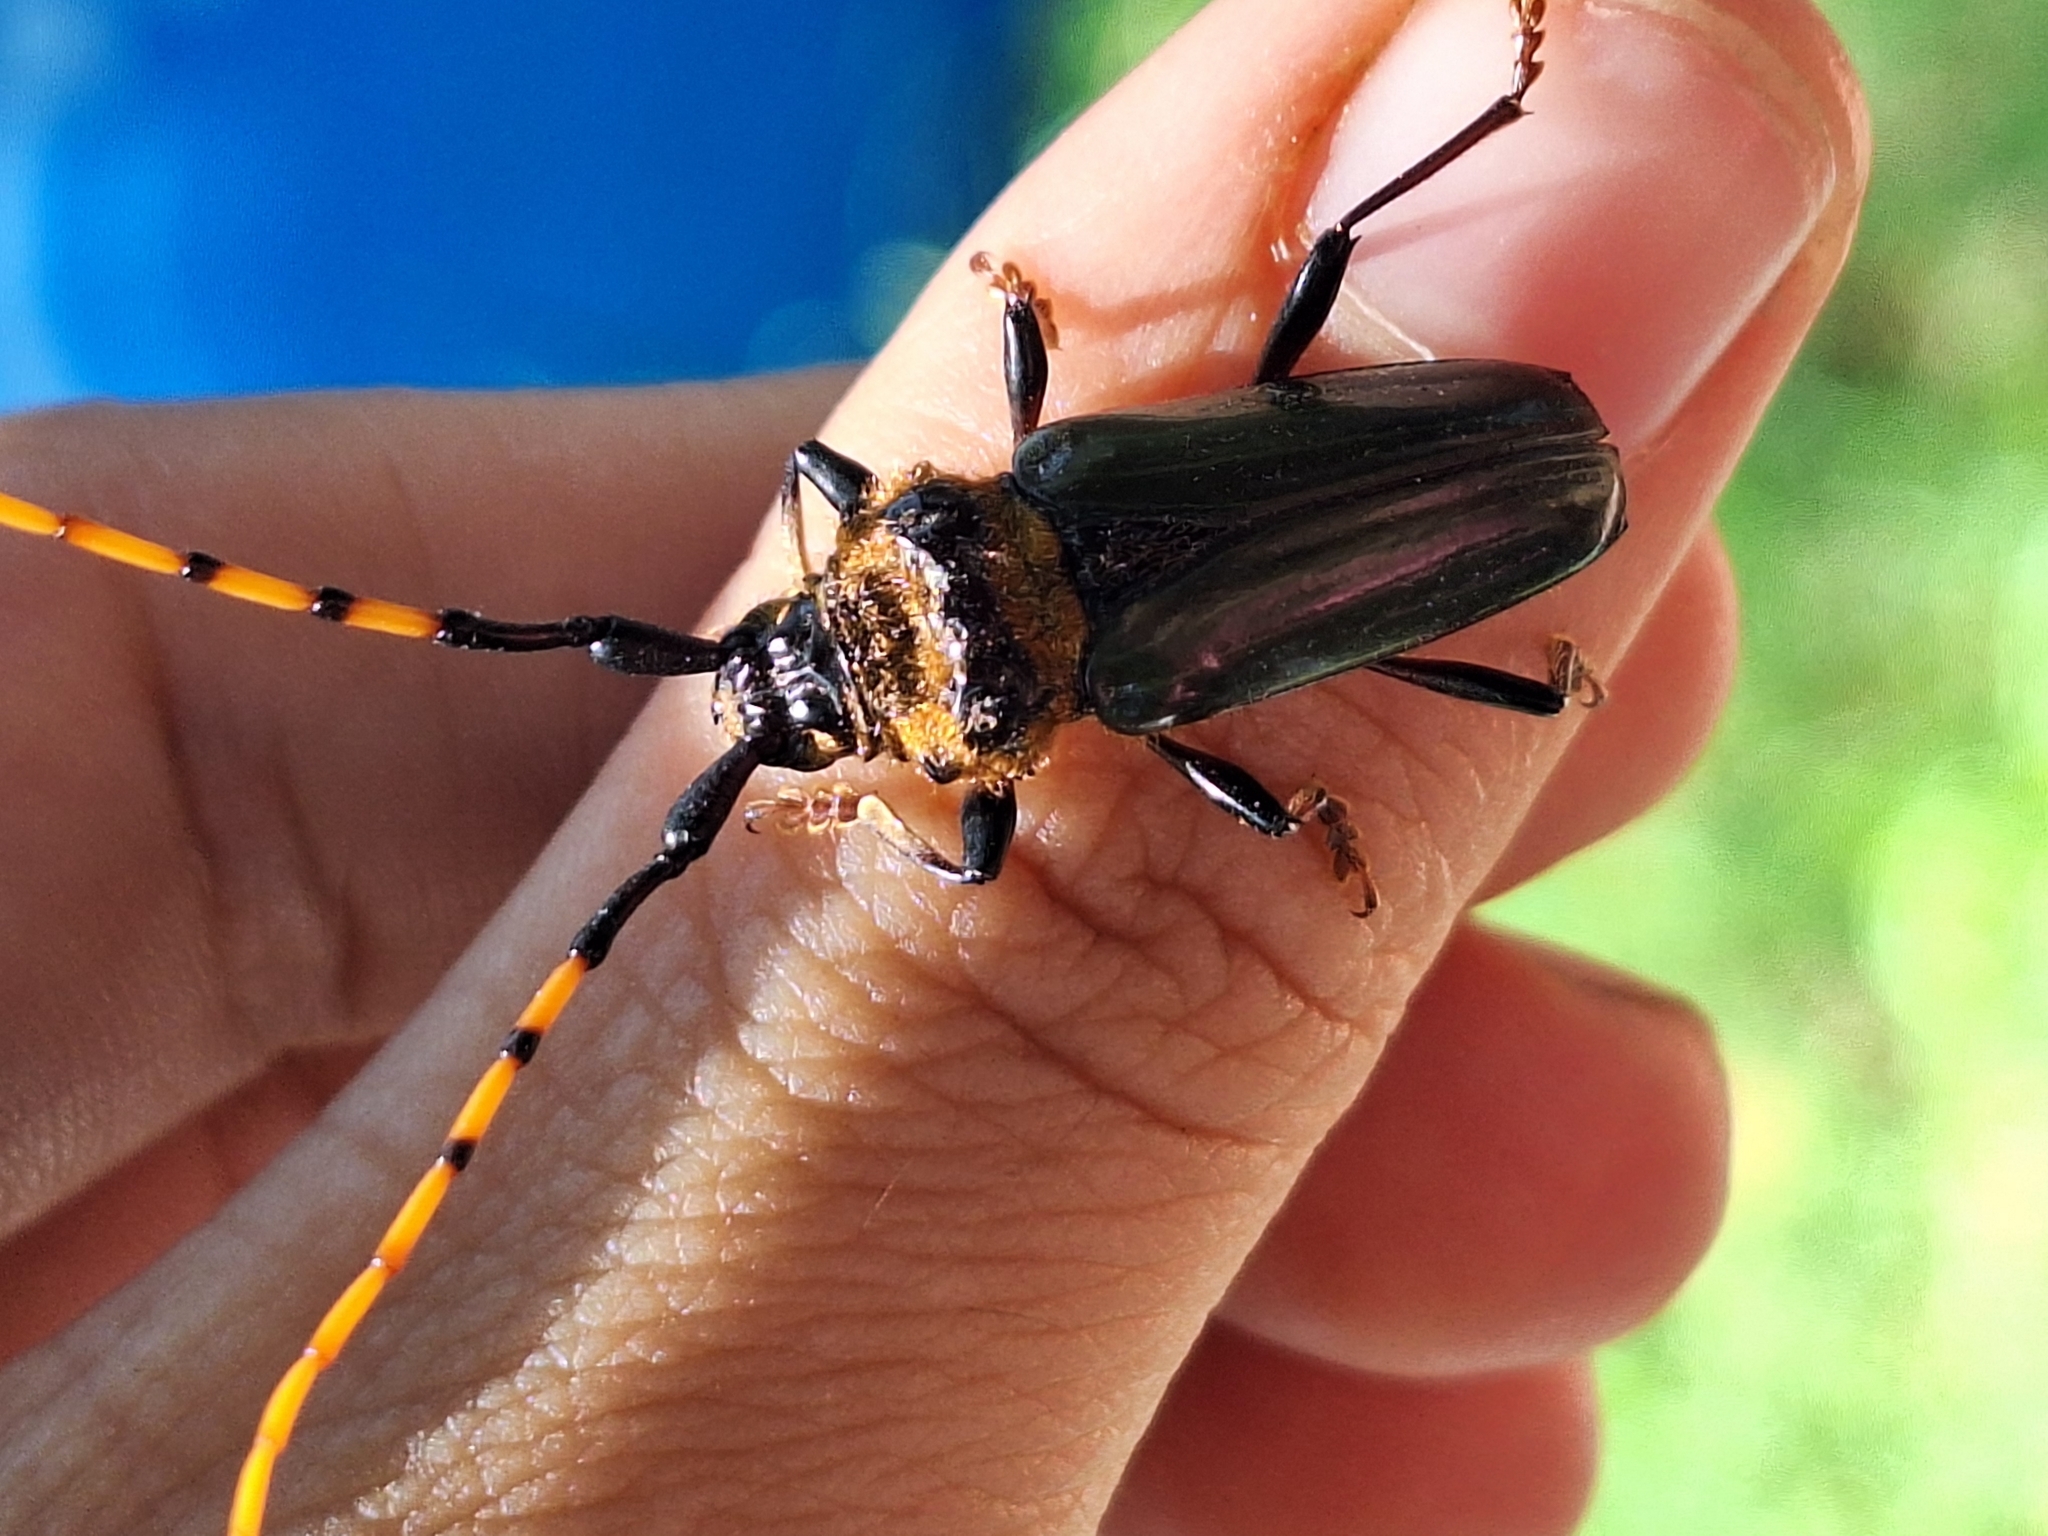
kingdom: Animalia
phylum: Arthropoda
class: Insecta
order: Coleoptera
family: Cerambycidae
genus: Retrachydes
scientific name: Retrachydes thoracicus
